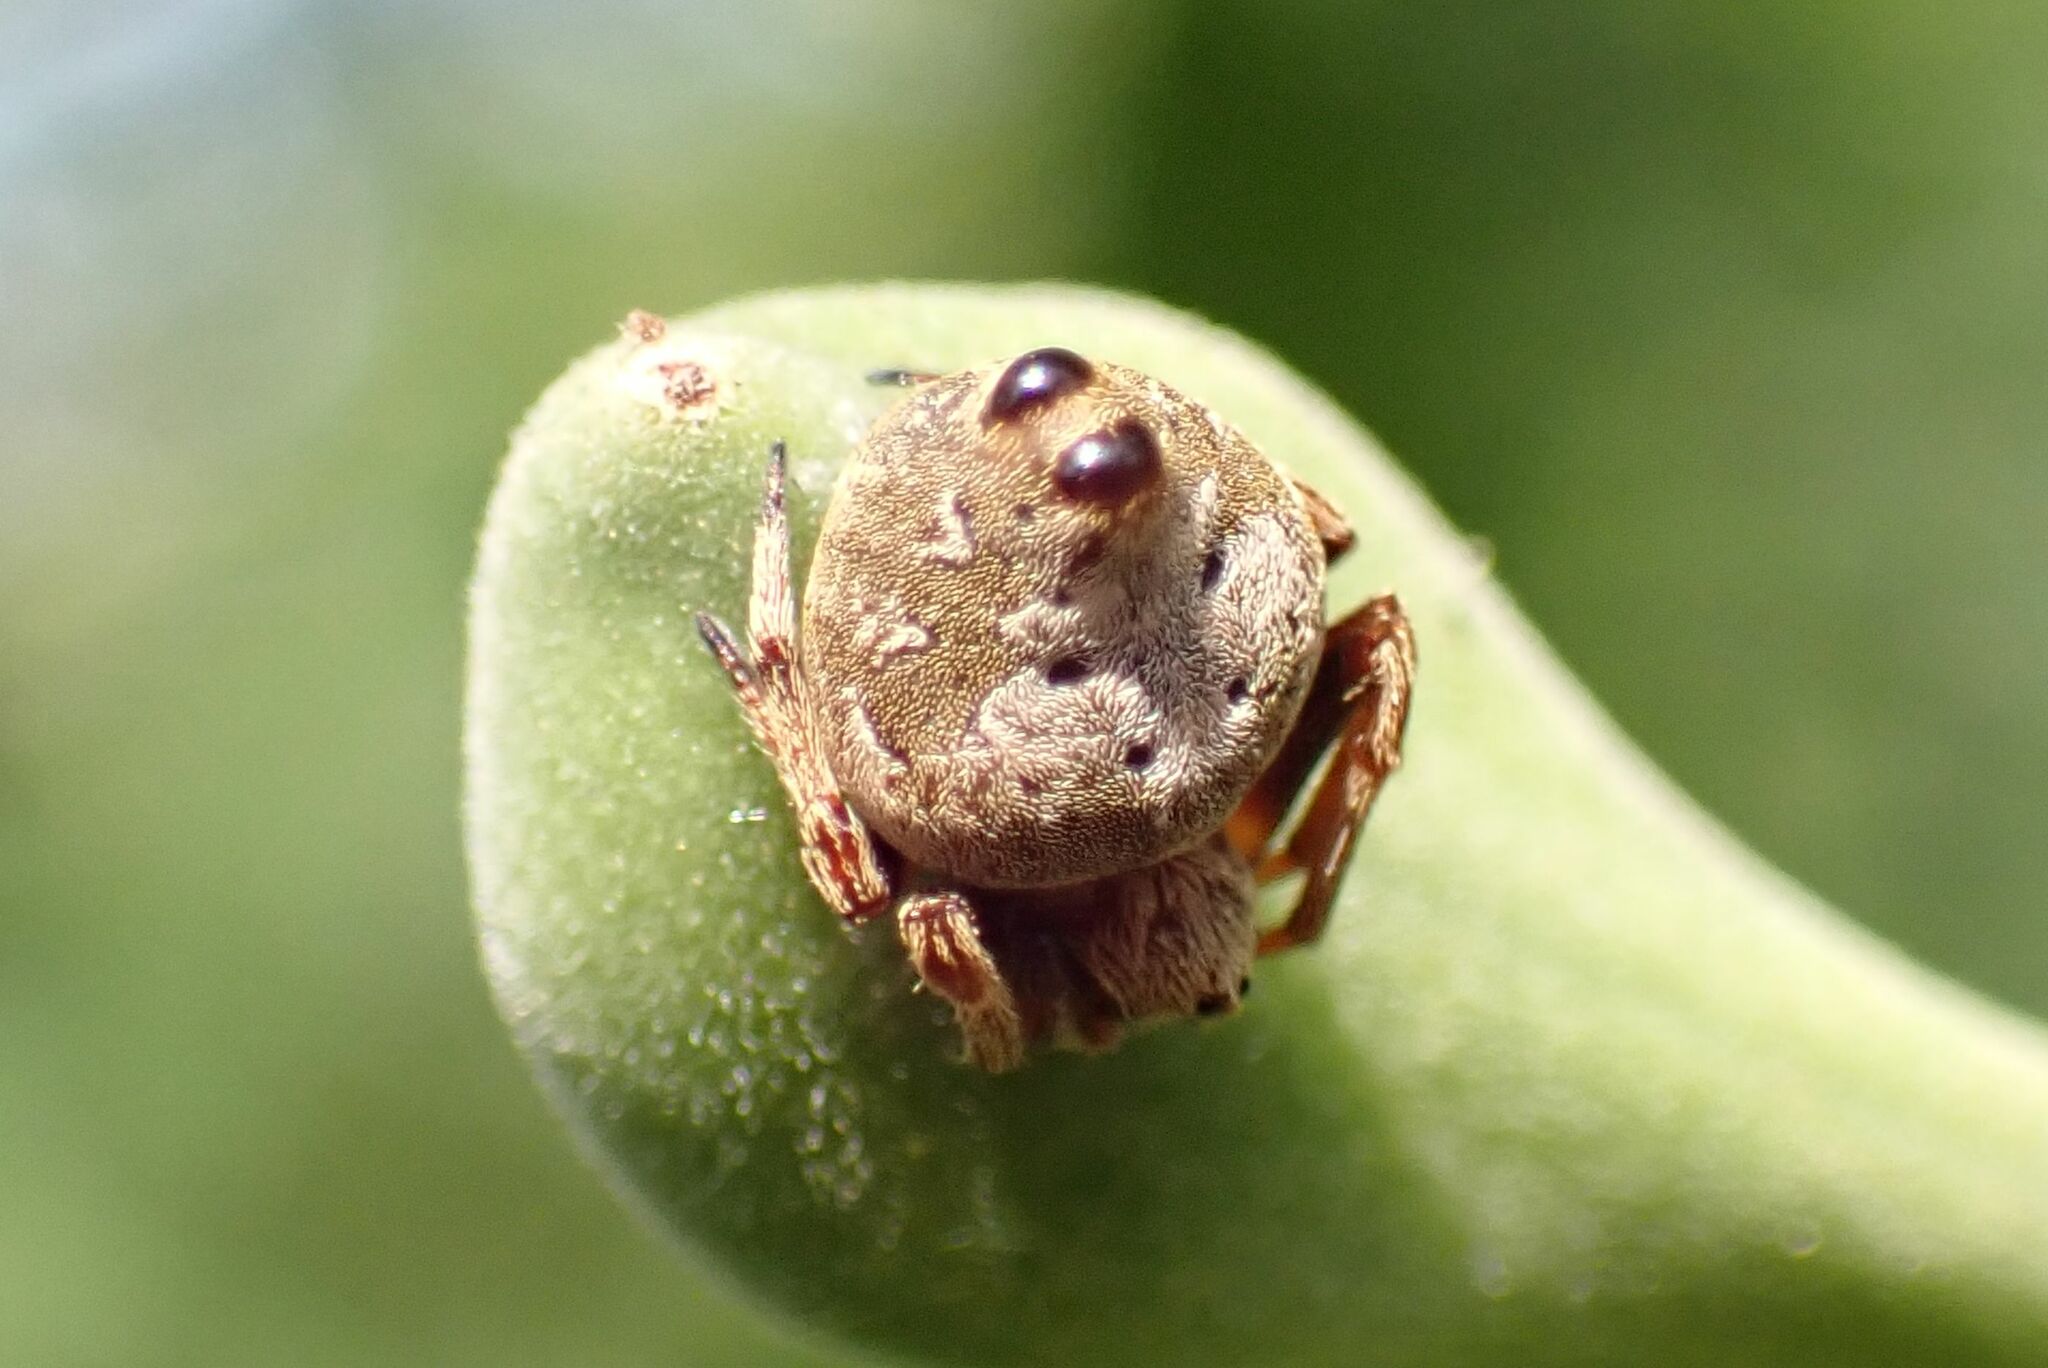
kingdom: Animalia
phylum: Arthropoda
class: Arachnida
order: Araneae
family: Araneidae
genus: Eriovixia
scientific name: Eriovixia excelsa
